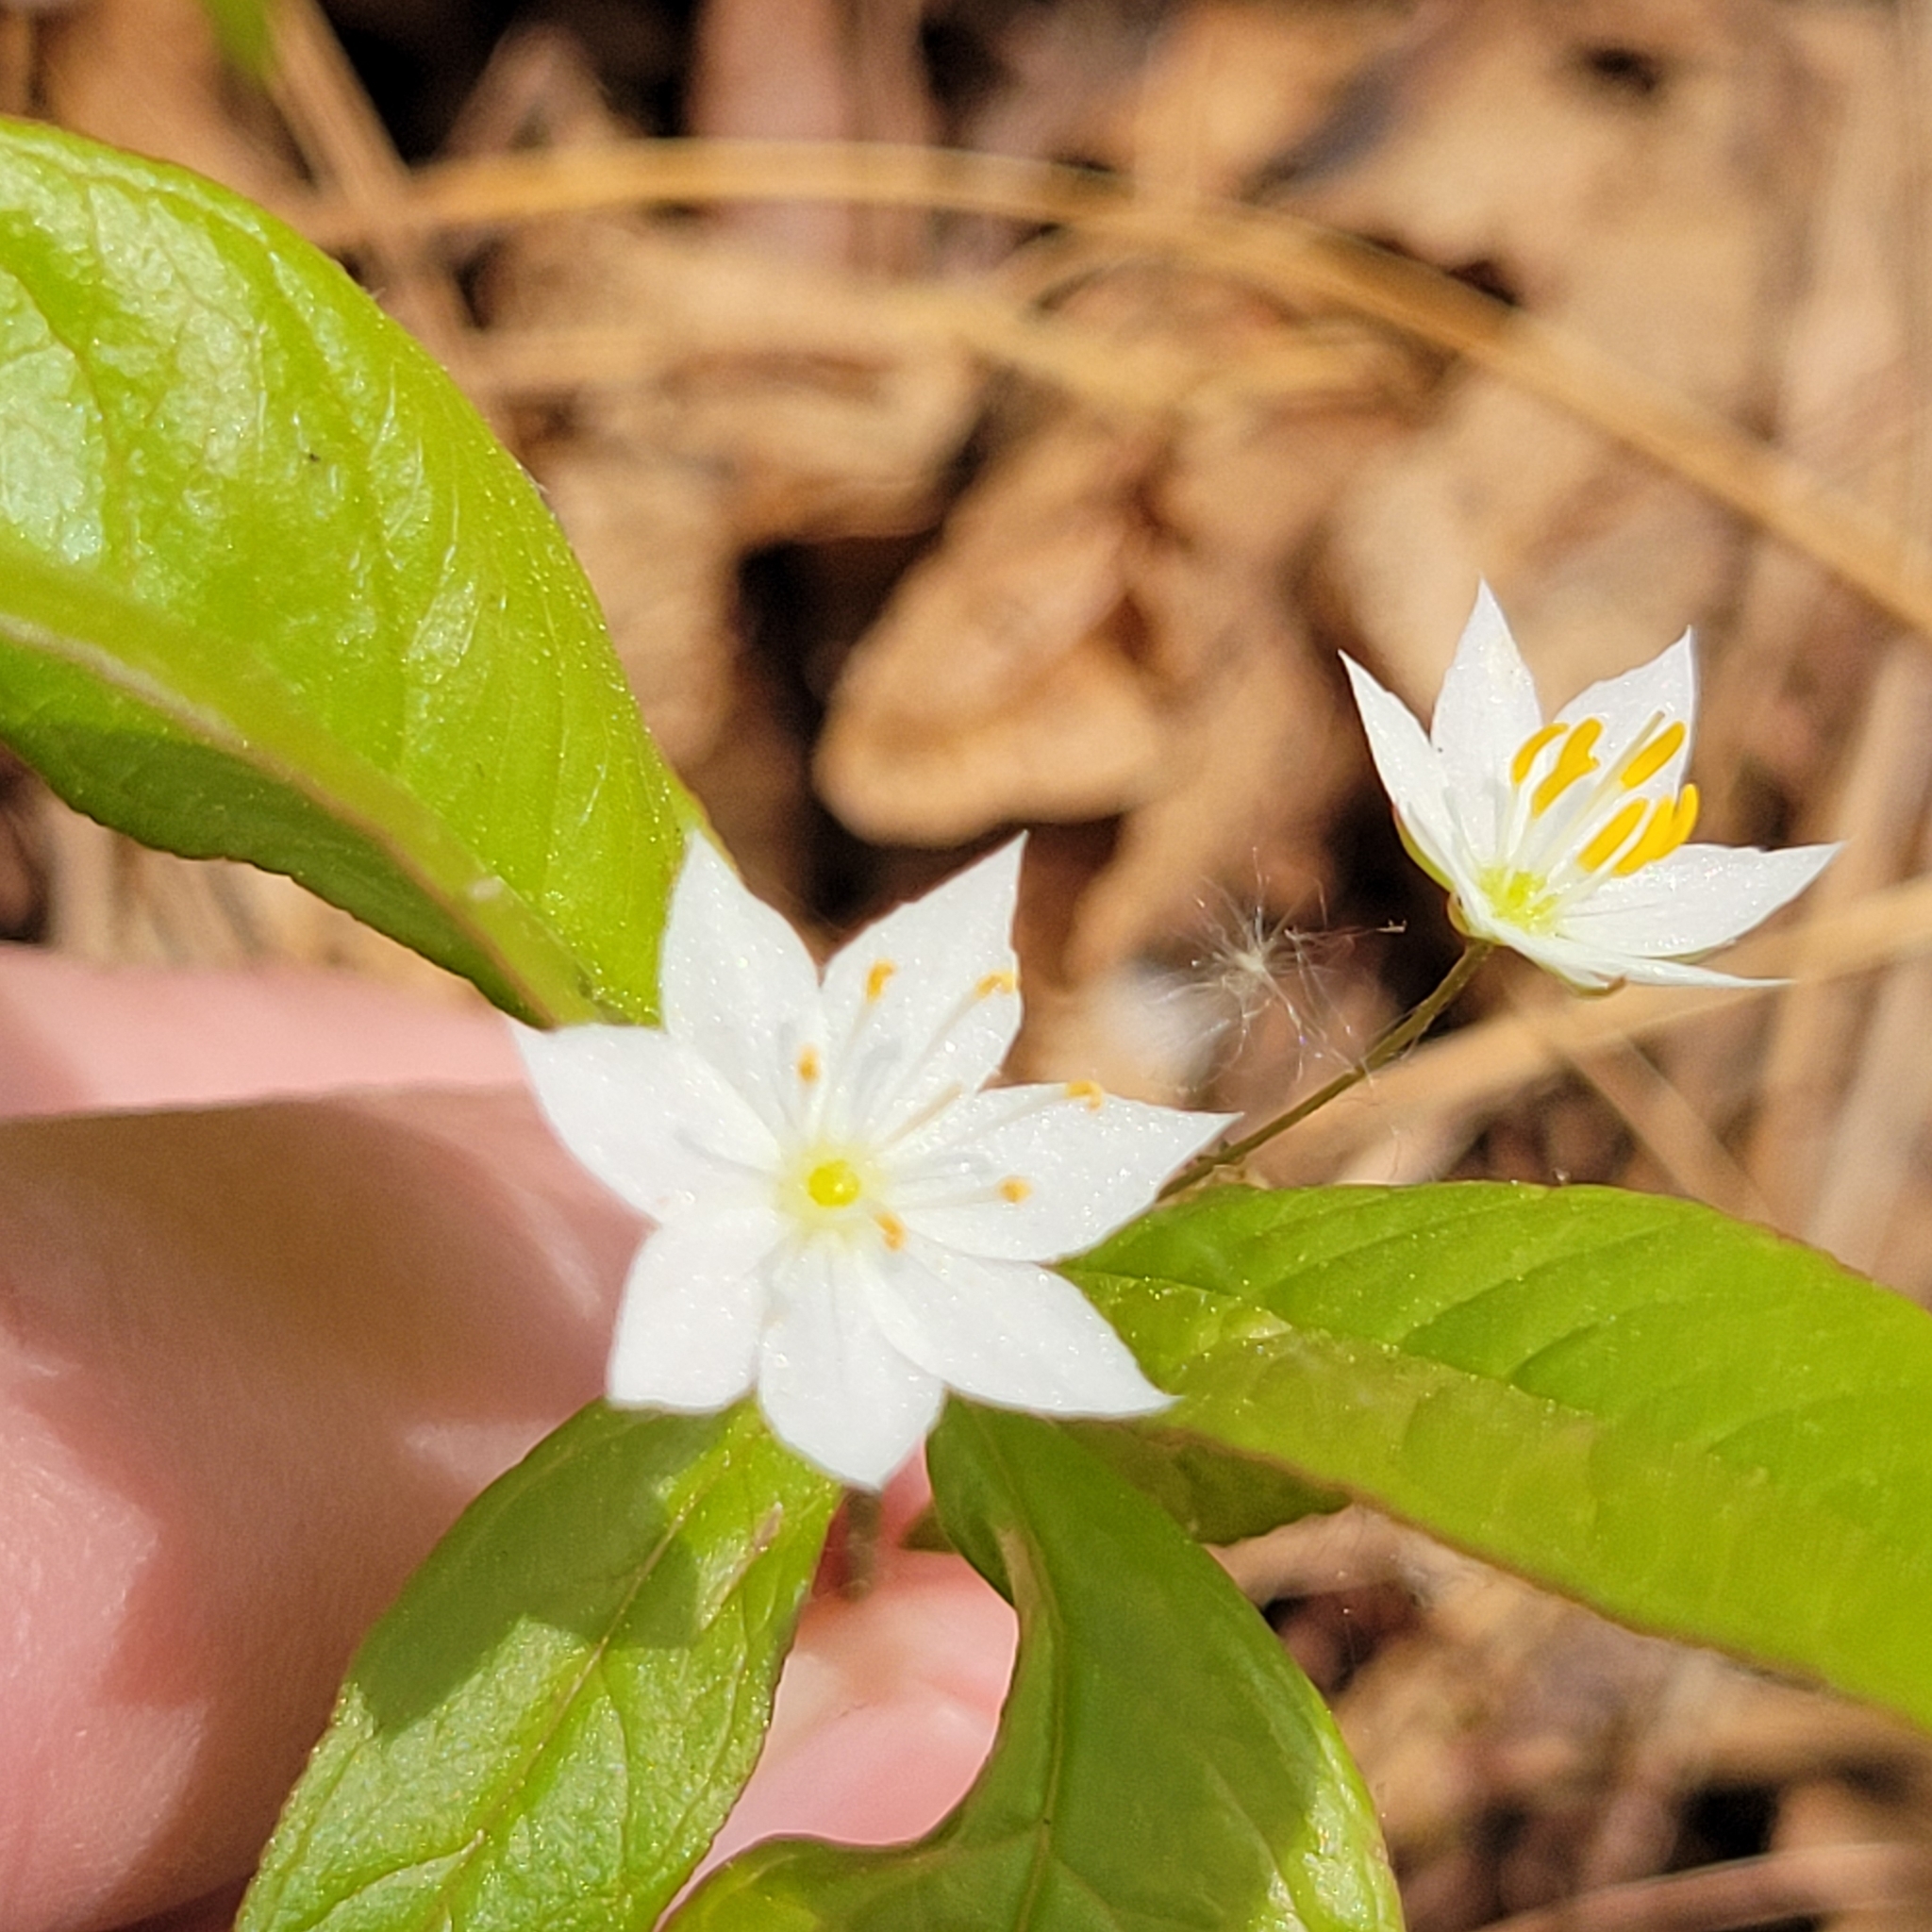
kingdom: Plantae
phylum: Tracheophyta
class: Magnoliopsida
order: Ericales
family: Primulaceae
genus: Lysimachia
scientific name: Lysimachia borealis
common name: American starflower
